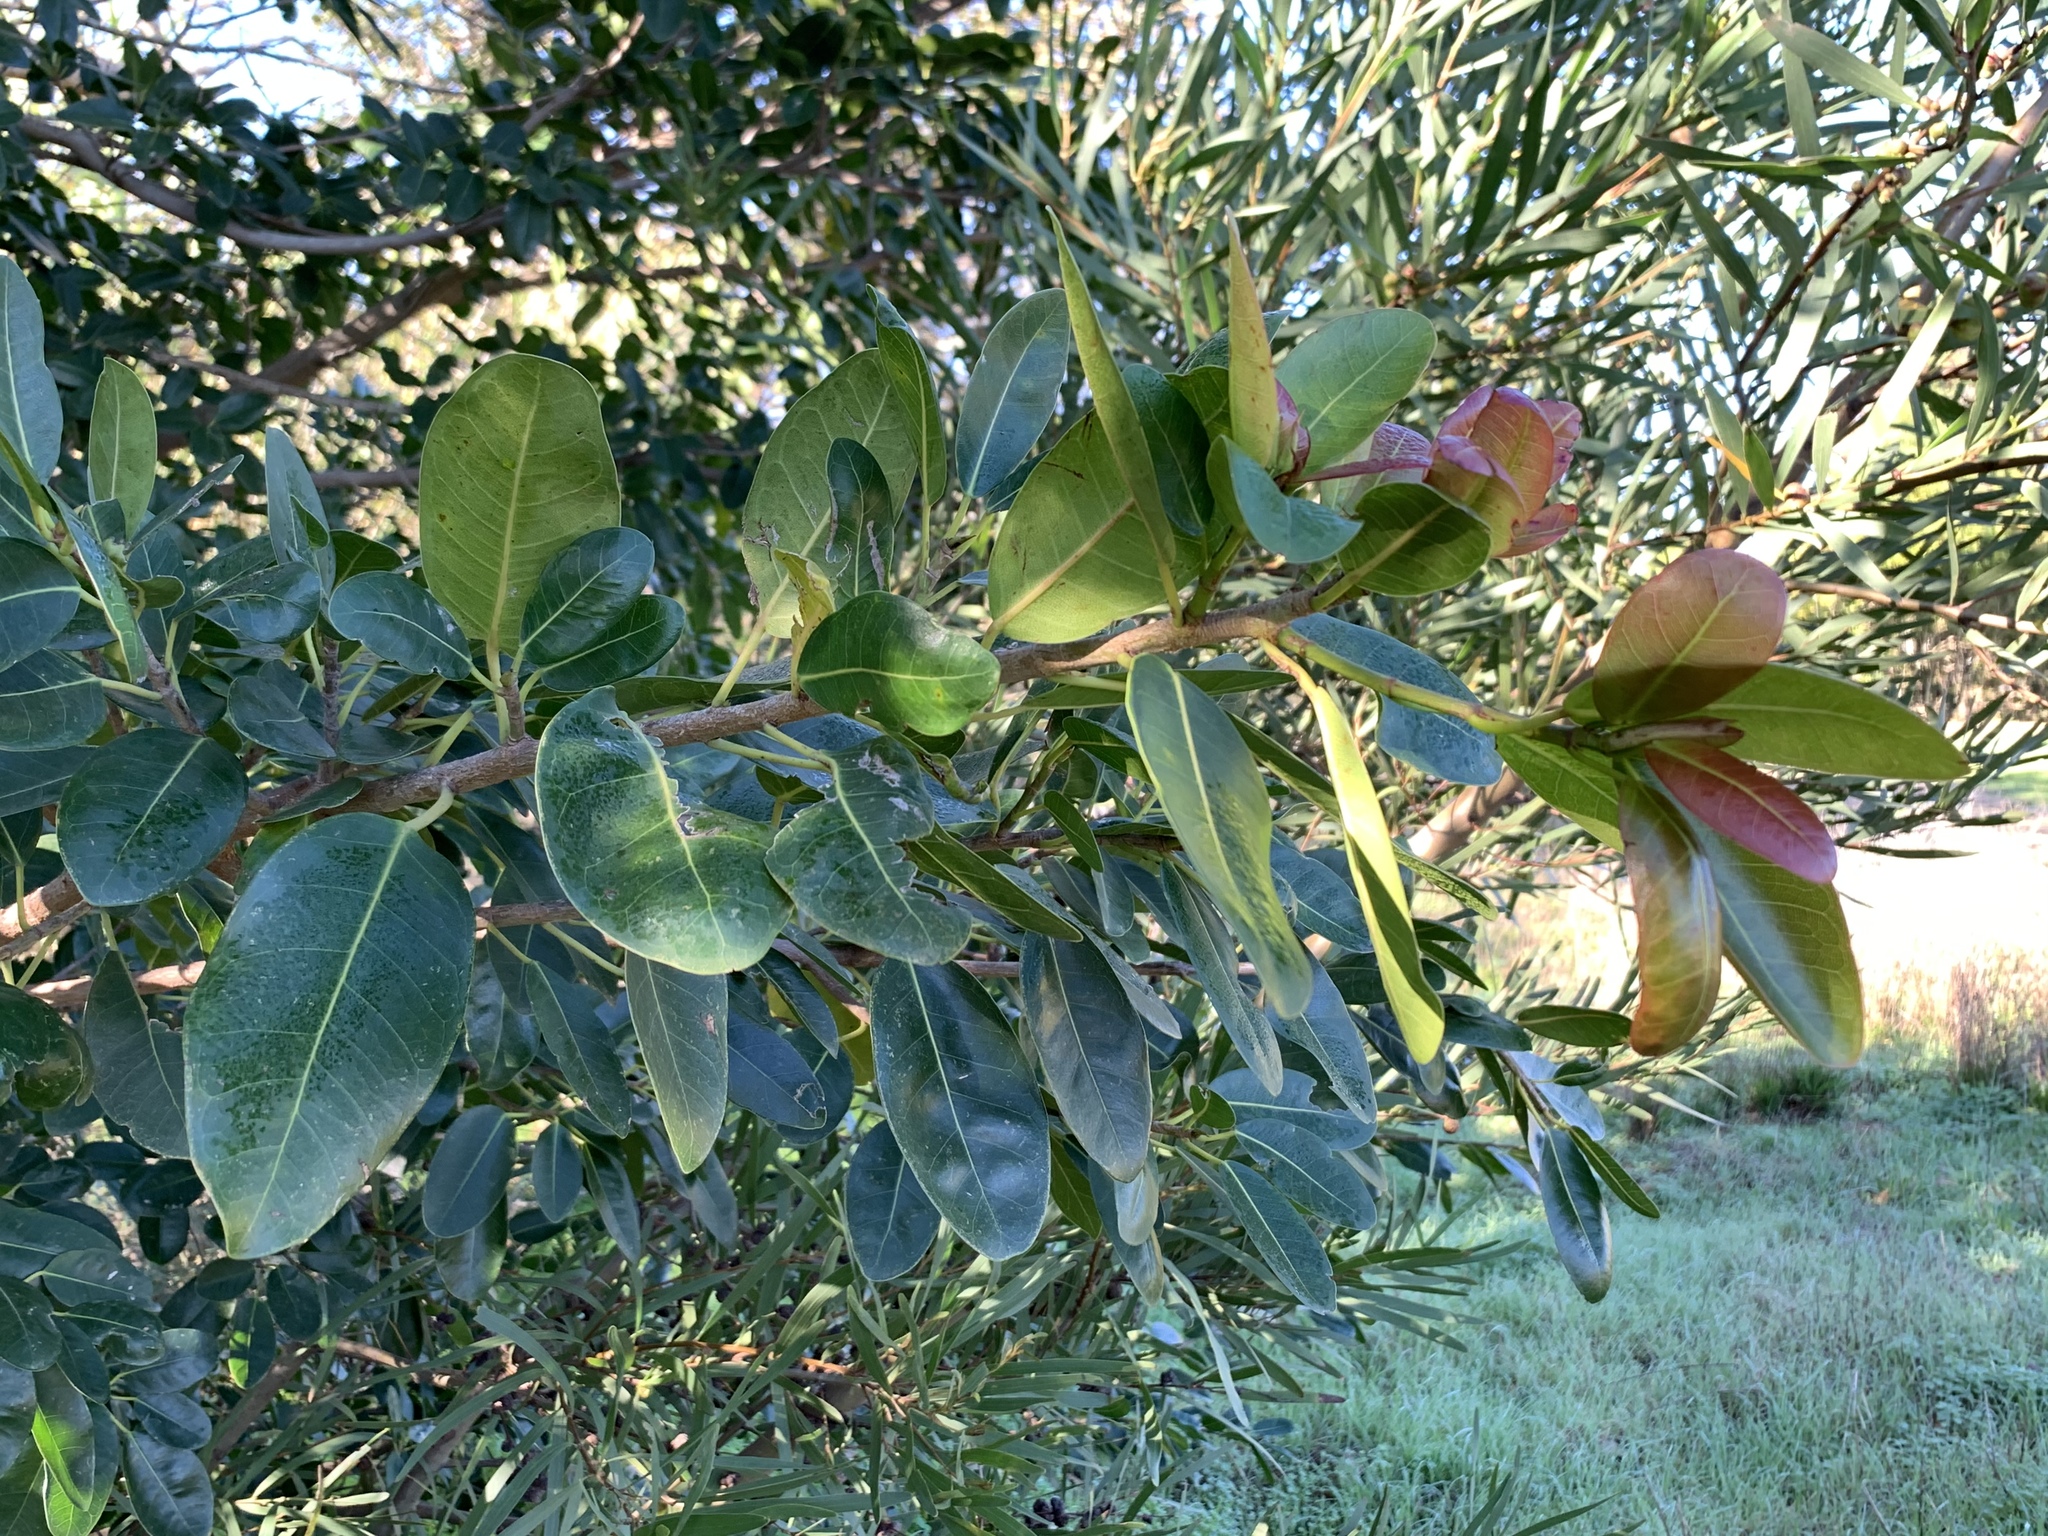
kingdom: Plantae
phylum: Tracheophyta
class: Magnoliopsida
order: Rosales
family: Moraceae
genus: Ficus
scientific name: Ficus thonningii
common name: Fig
